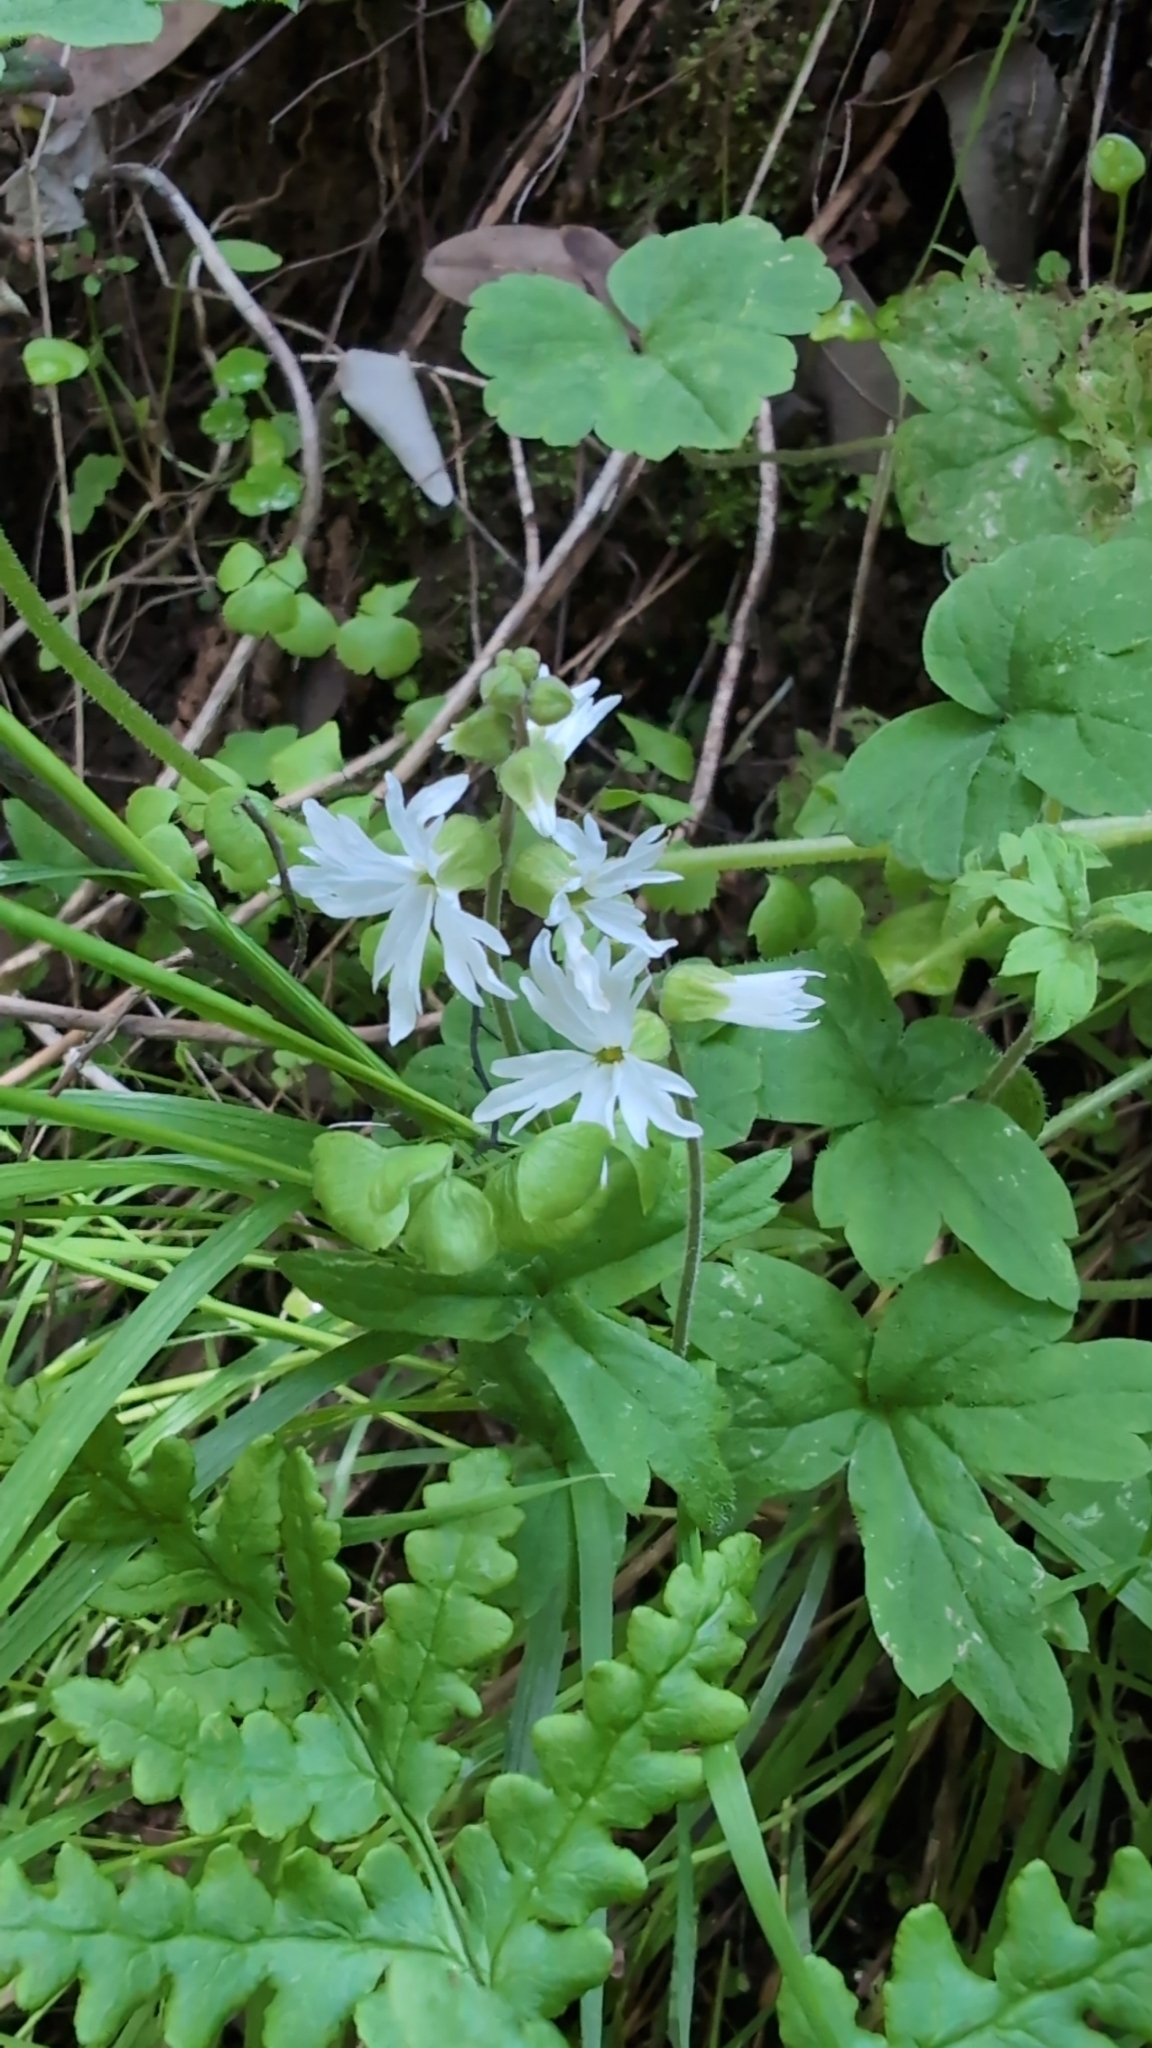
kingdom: Plantae
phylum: Tracheophyta
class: Magnoliopsida
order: Saxifragales
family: Saxifragaceae
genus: Lithophragma
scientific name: Lithophragma heterophyllum
